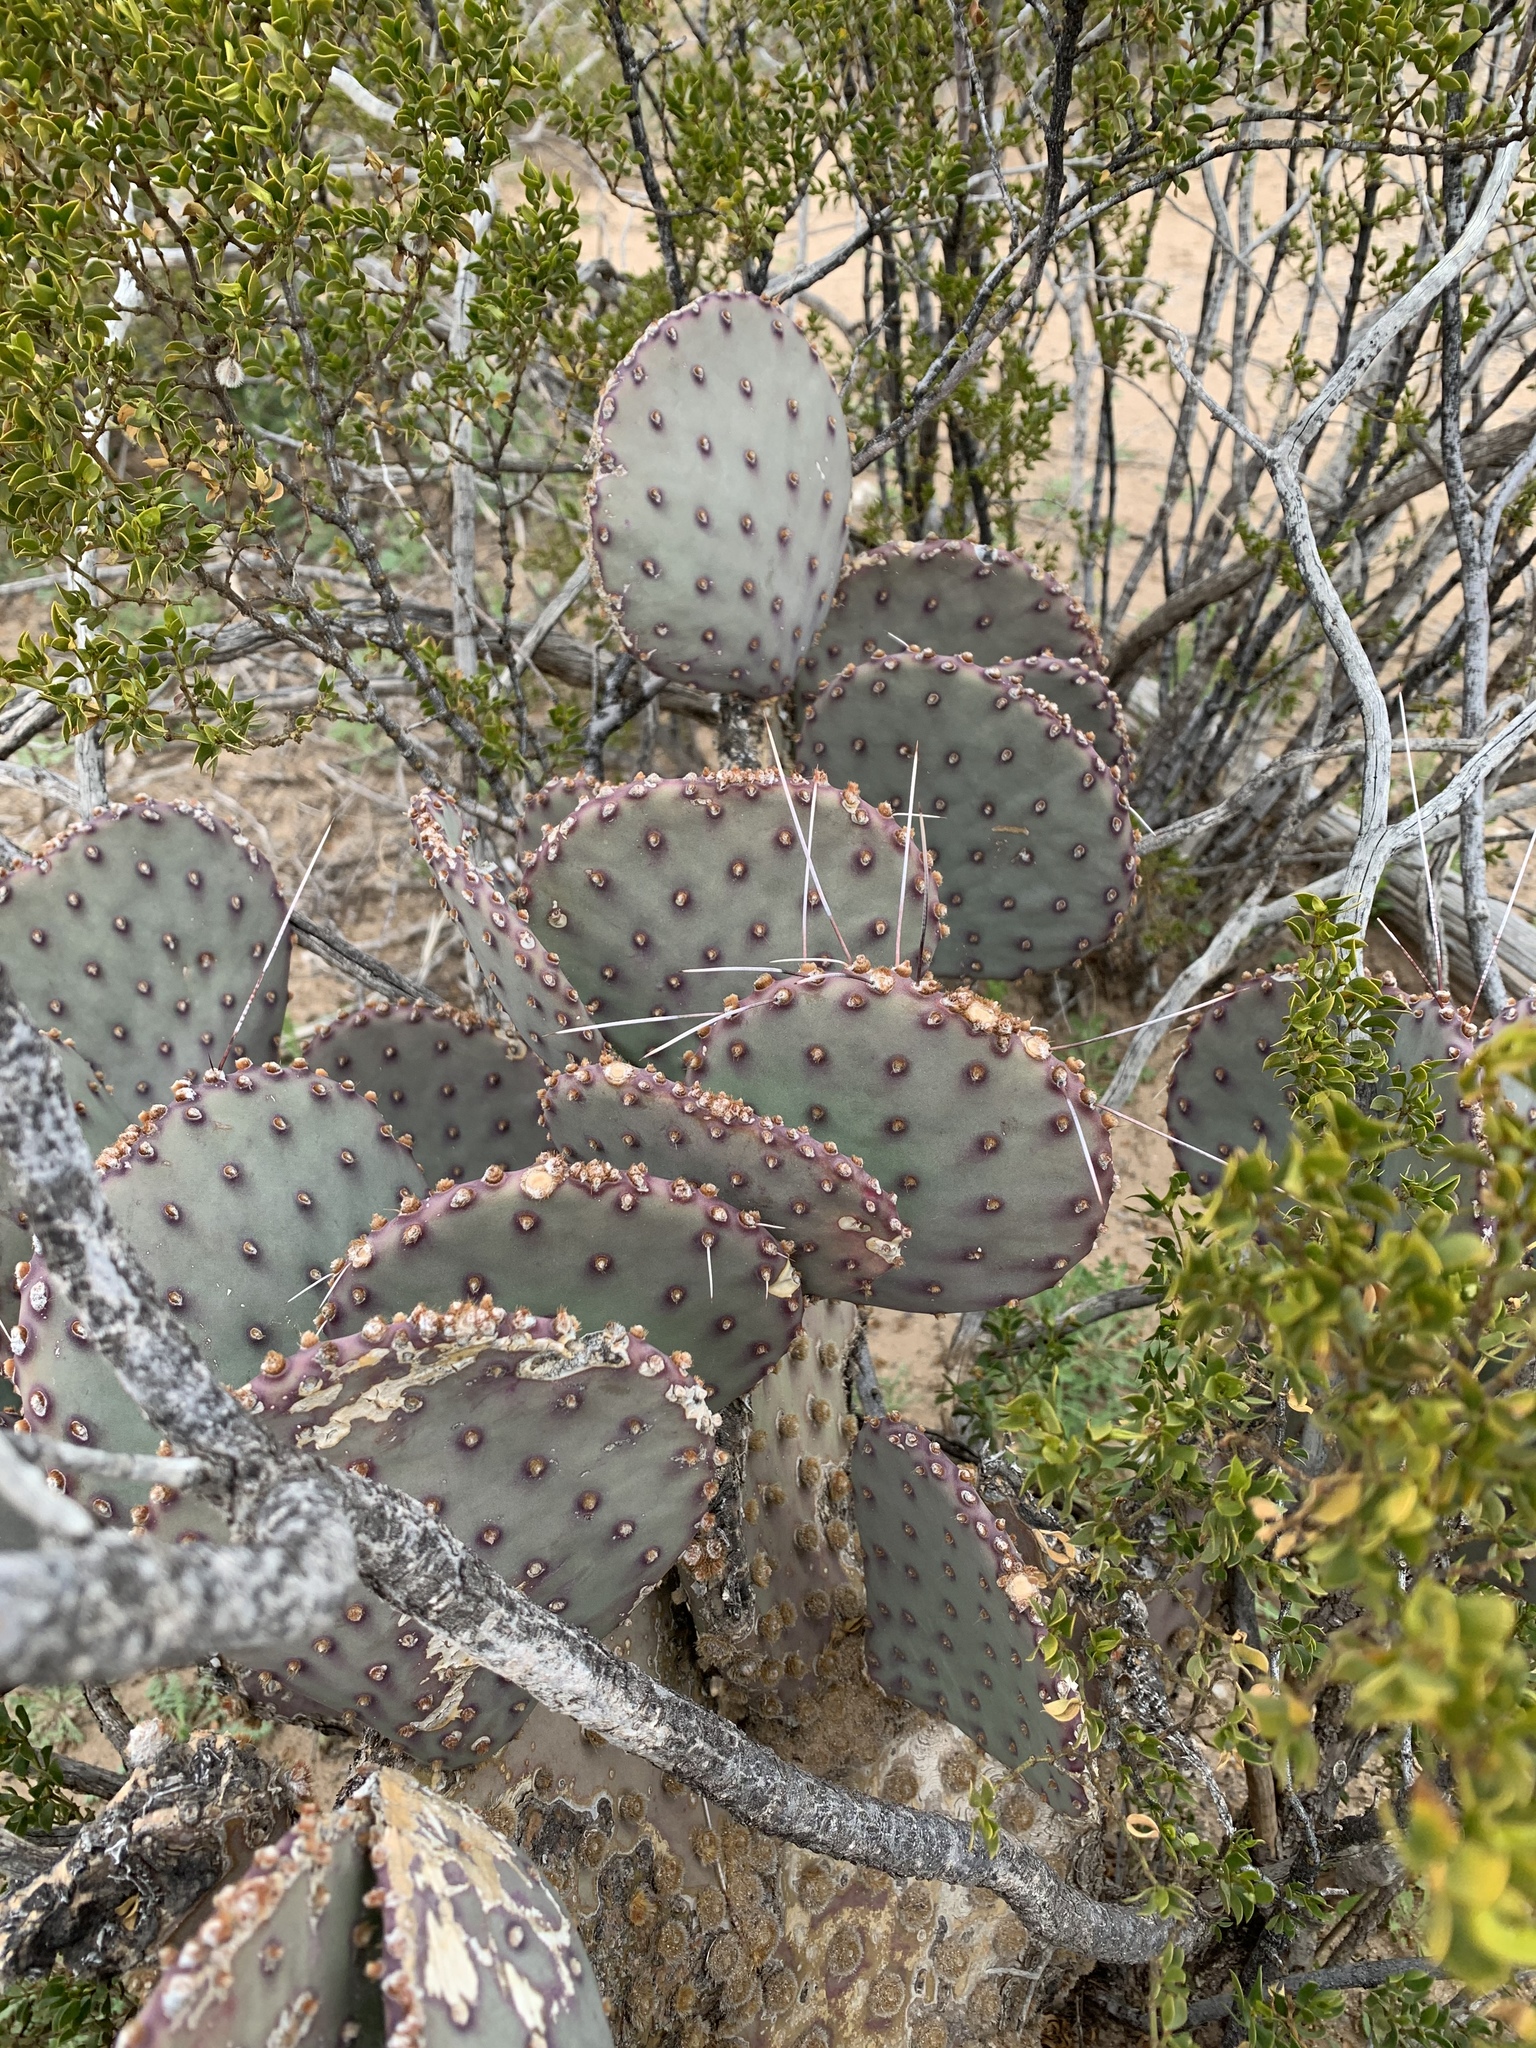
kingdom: Plantae
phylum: Tracheophyta
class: Magnoliopsida
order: Caryophyllales
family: Cactaceae
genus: Opuntia
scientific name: Opuntia macrocentra
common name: Purple prickly-pear
